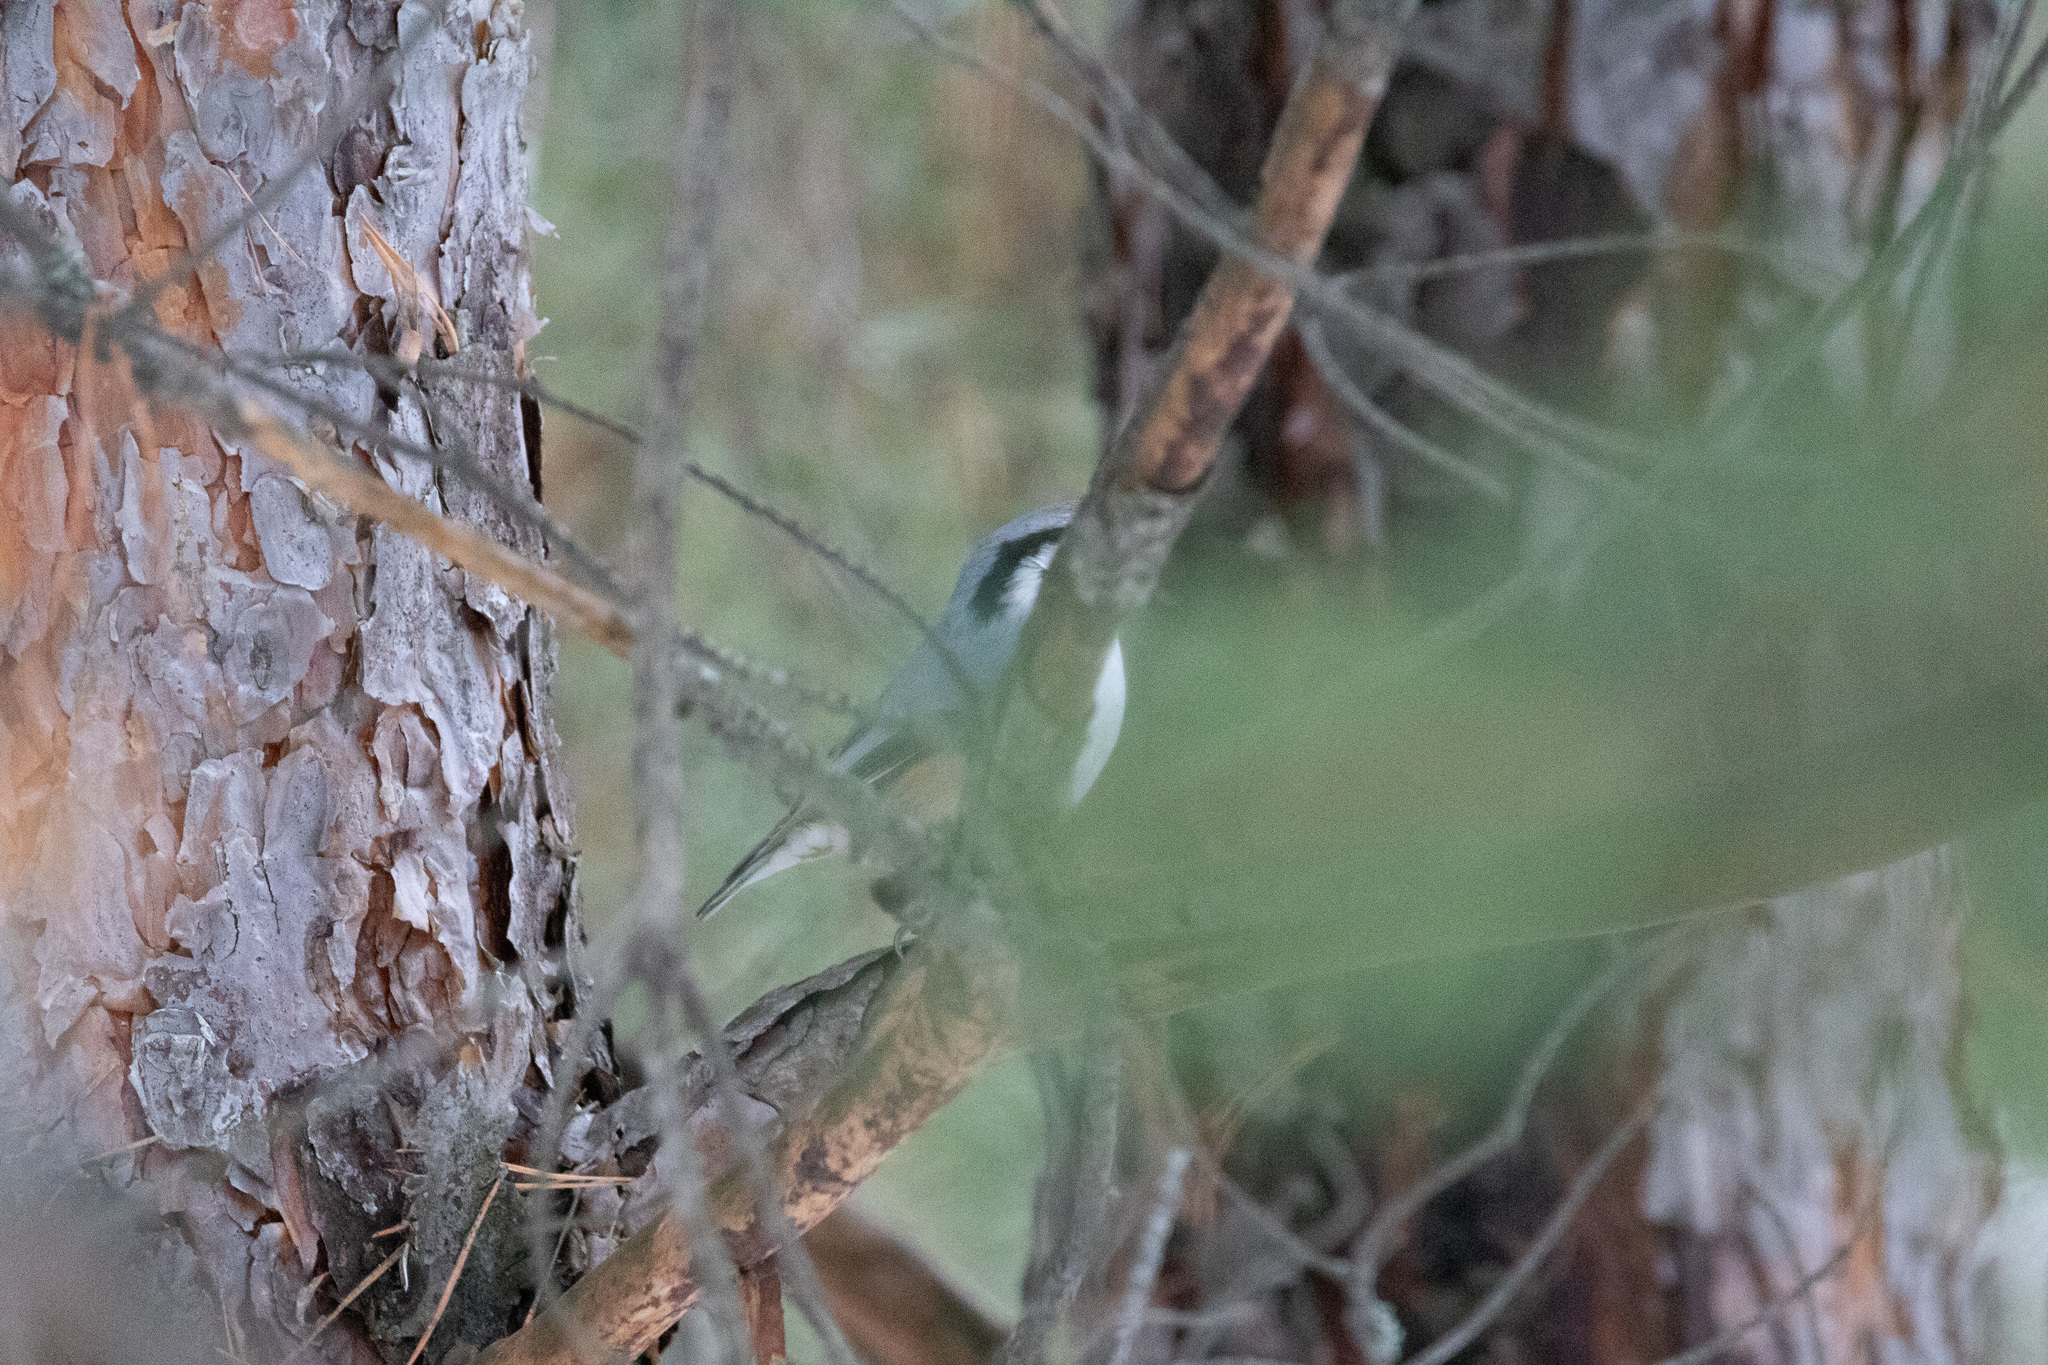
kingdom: Animalia
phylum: Chordata
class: Aves
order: Passeriformes
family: Sittidae
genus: Sitta
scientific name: Sitta europaea
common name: Eurasian nuthatch
